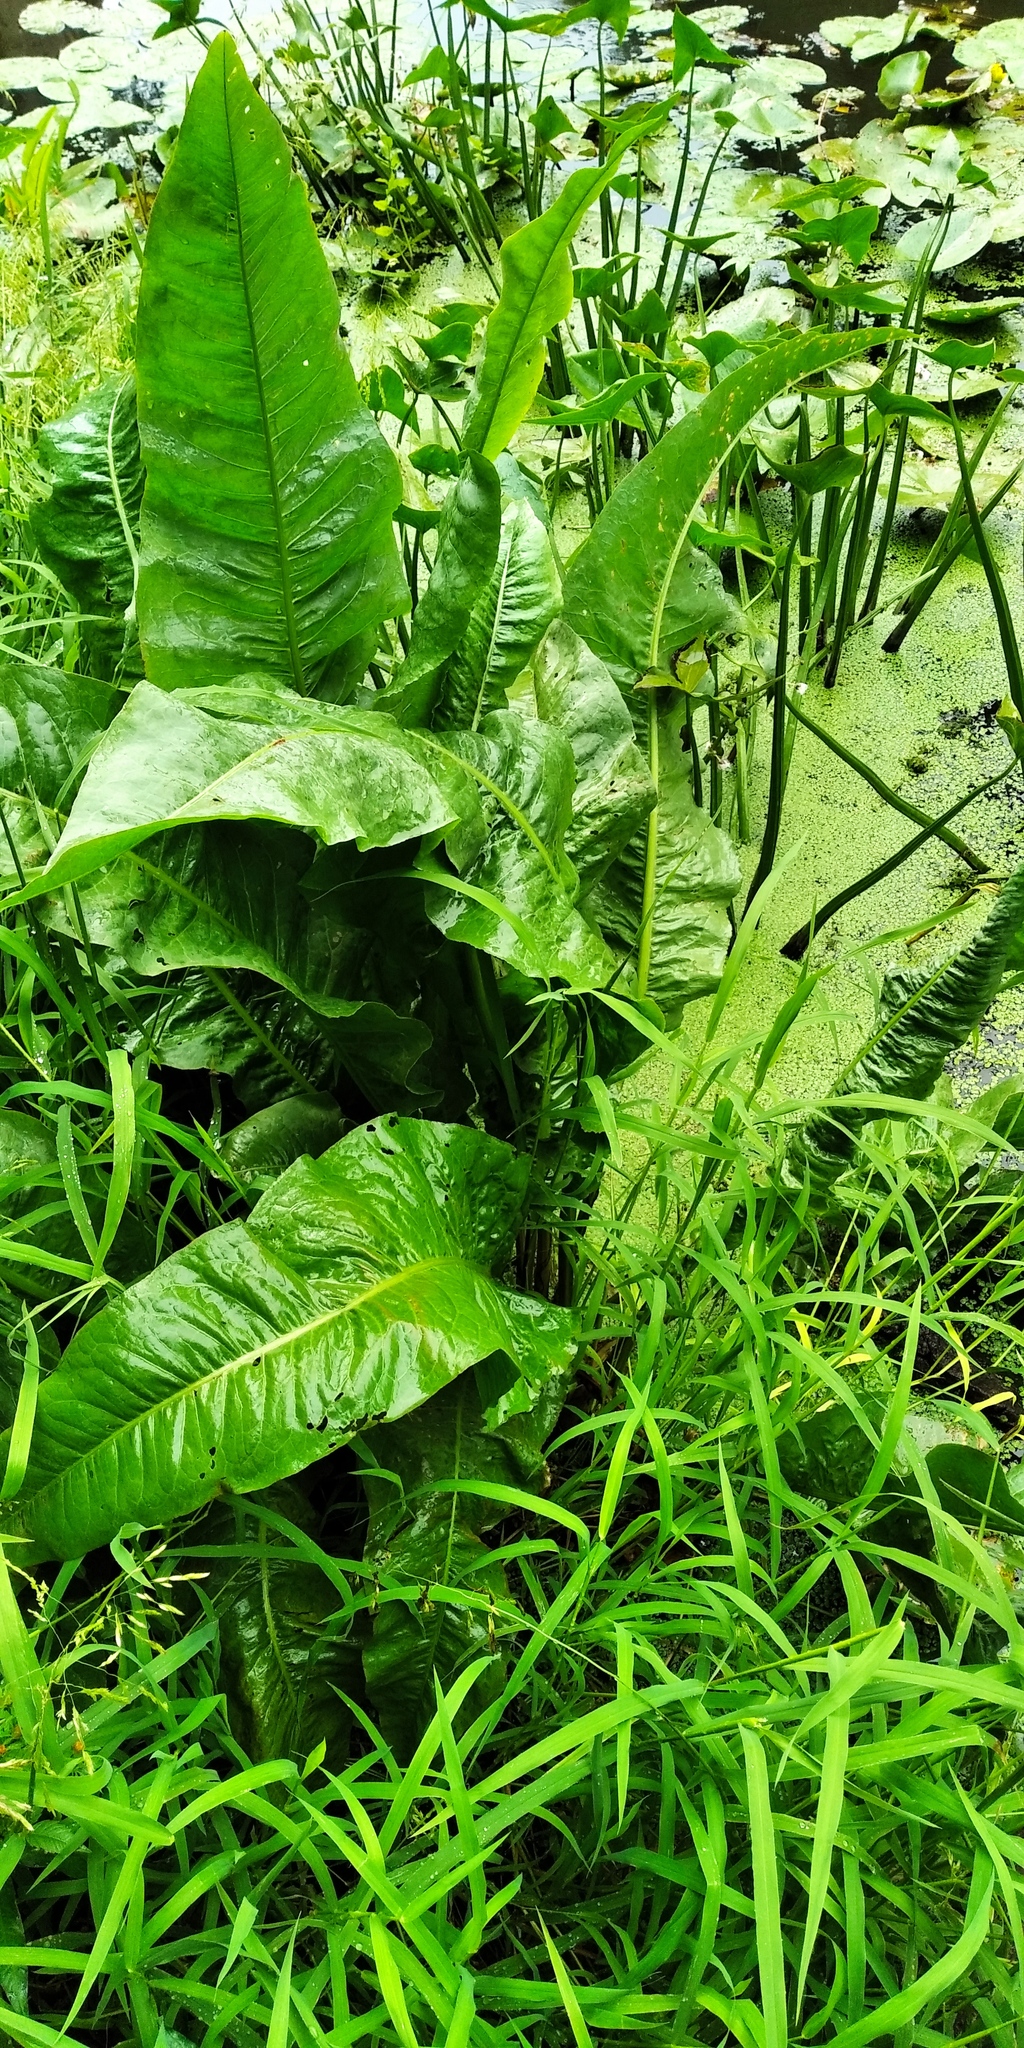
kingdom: Plantae
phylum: Tracheophyta
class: Magnoliopsida
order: Caryophyllales
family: Polygonaceae
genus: Rumex
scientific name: Rumex hydrolapathum
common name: Water dock
